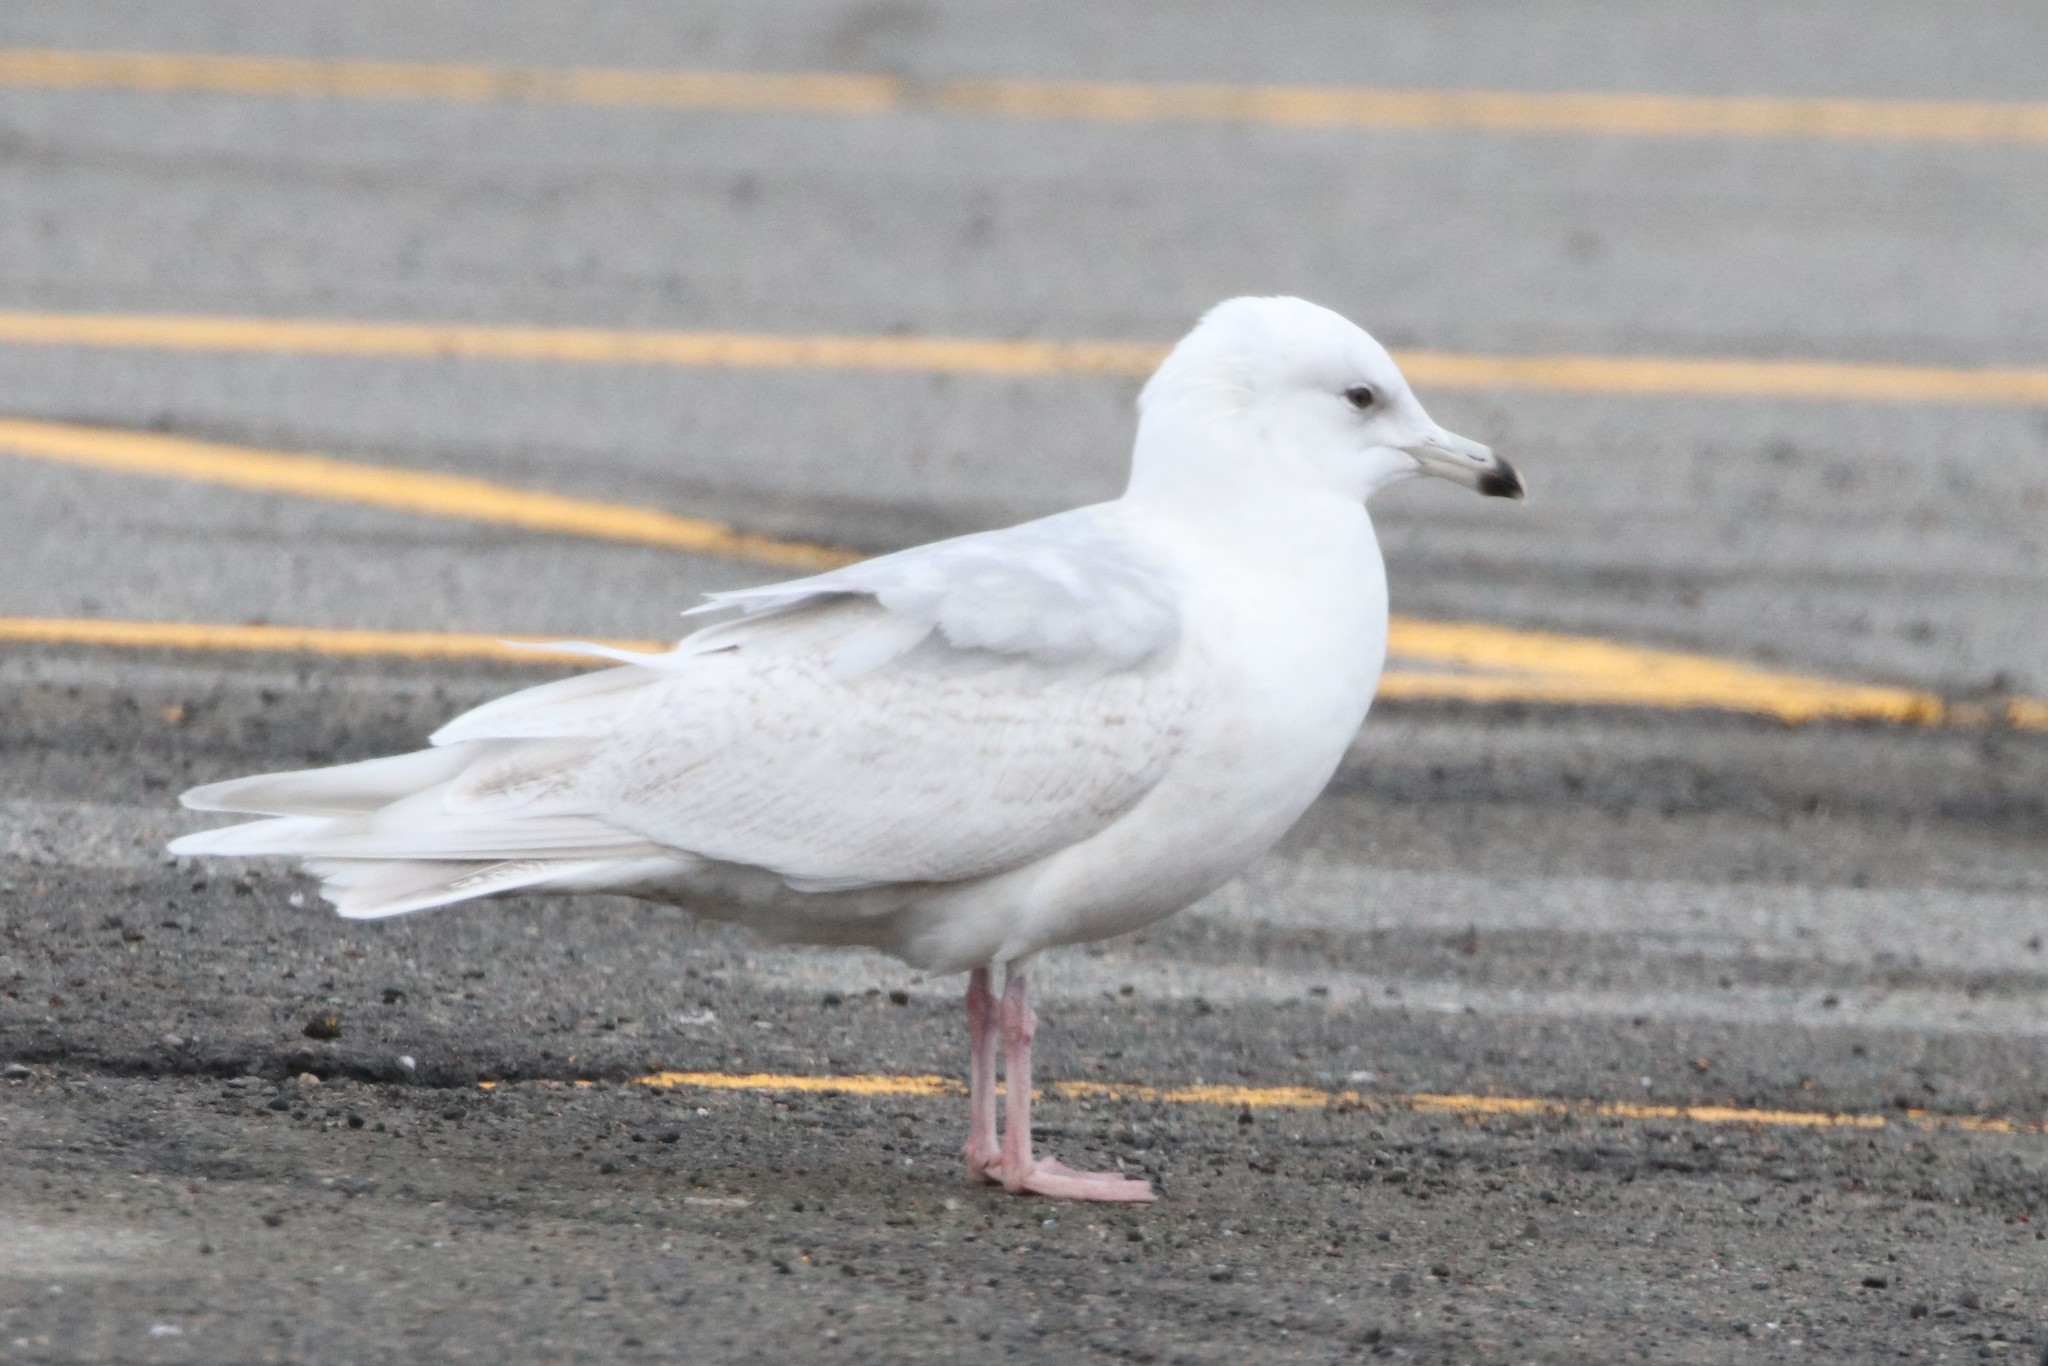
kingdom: Animalia
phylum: Chordata
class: Aves
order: Charadriiformes
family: Laridae
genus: Larus
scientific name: Larus glaucoides
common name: Iceland gull
